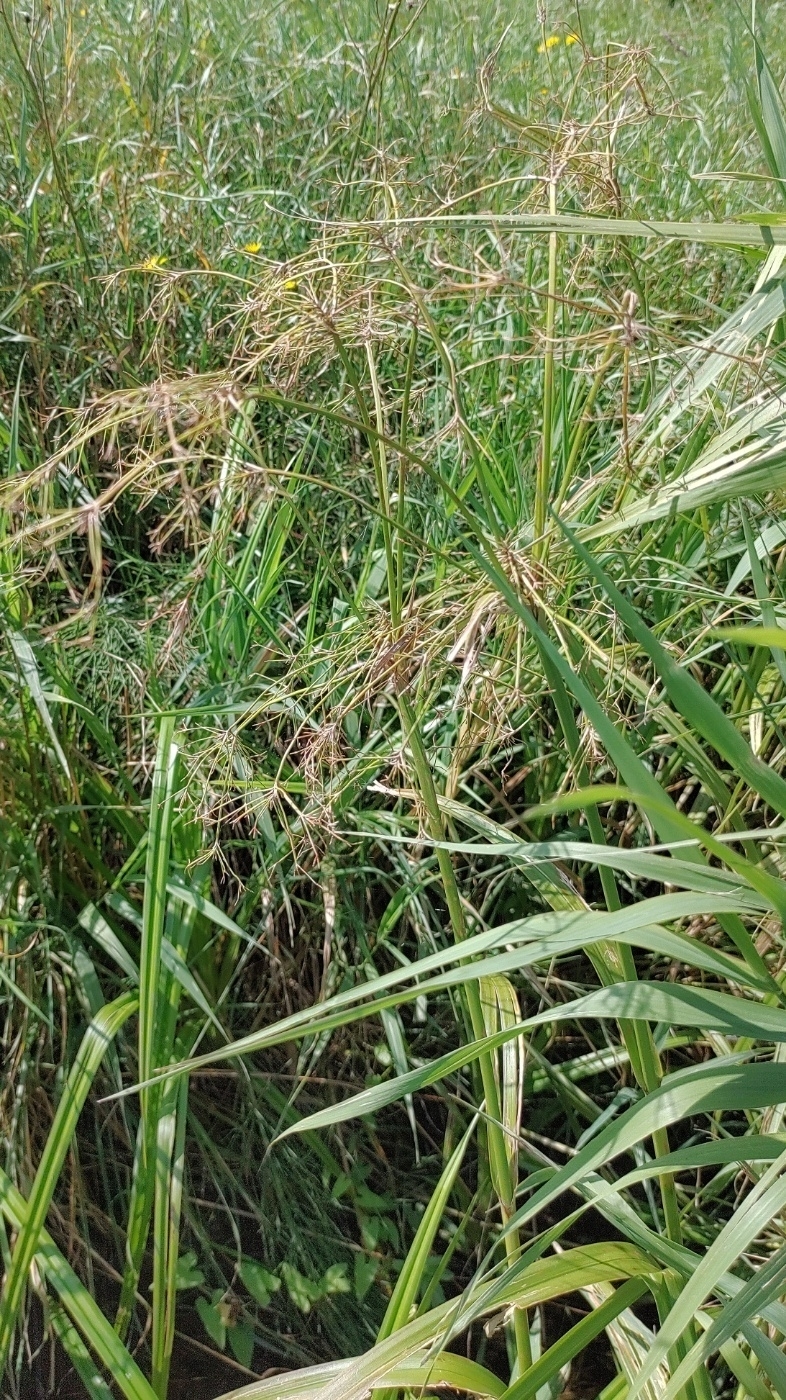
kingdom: Plantae
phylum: Tracheophyta
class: Liliopsida
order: Poales
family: Cyperaceae
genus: Scirpus
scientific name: Scirpus sylvaticus
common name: Wood club-rush
